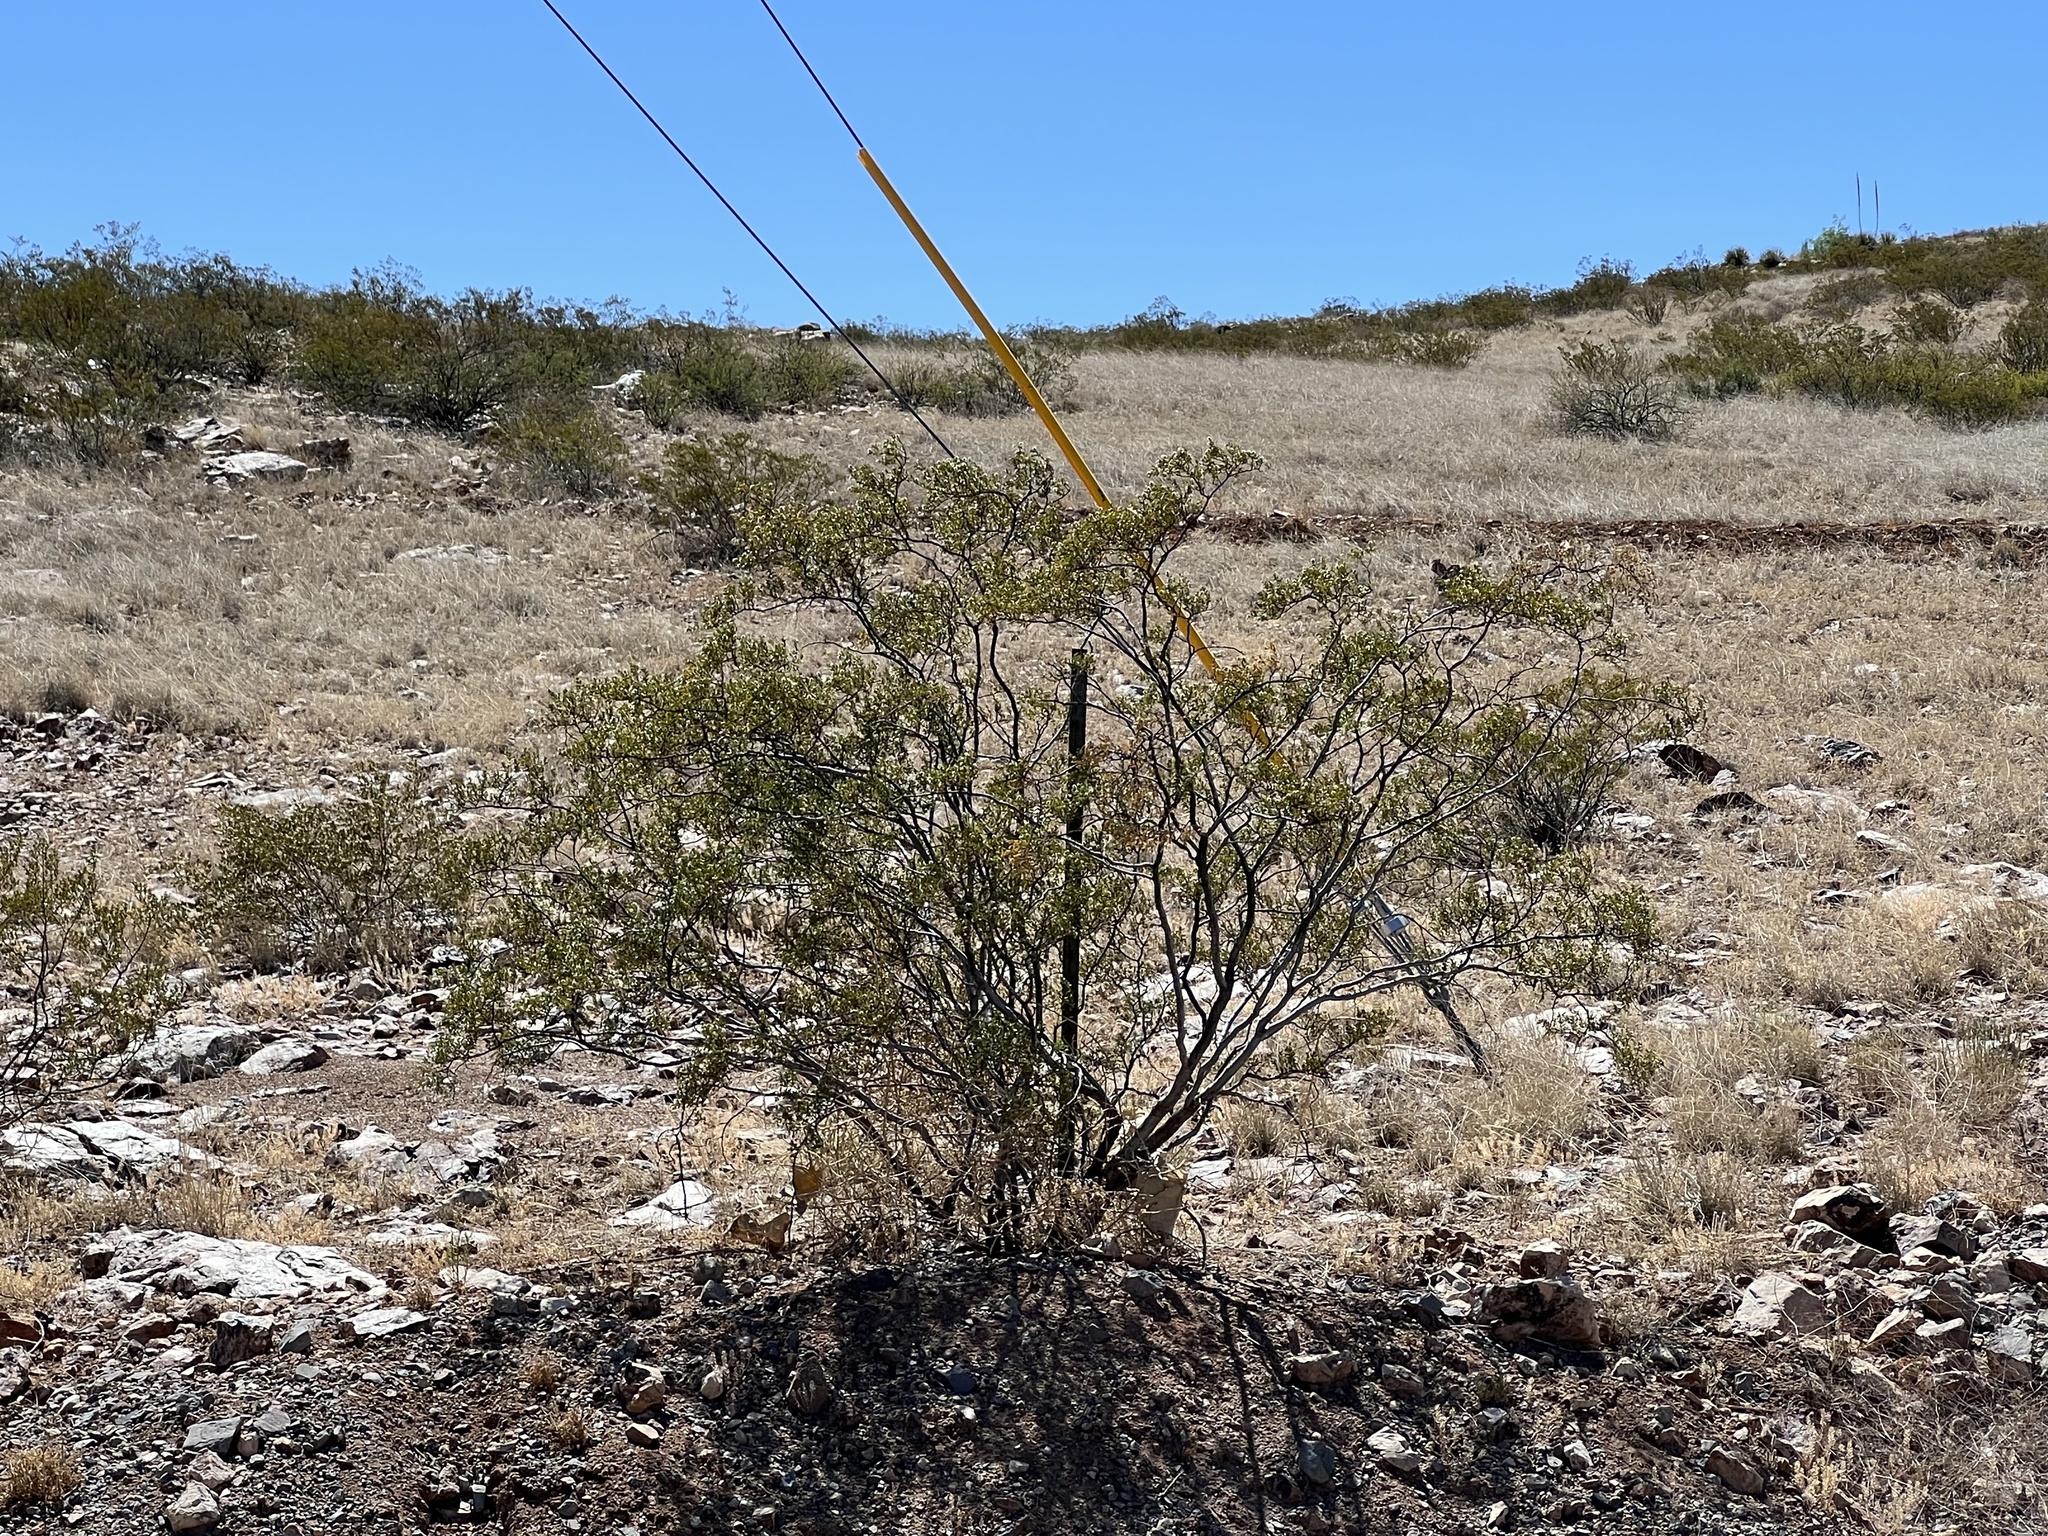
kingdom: Plantae
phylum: Tracheophyta
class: Magnoliopsida
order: Zygophyllales
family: Zygophyllaceae
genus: Larrea
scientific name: Larrea tridentata
